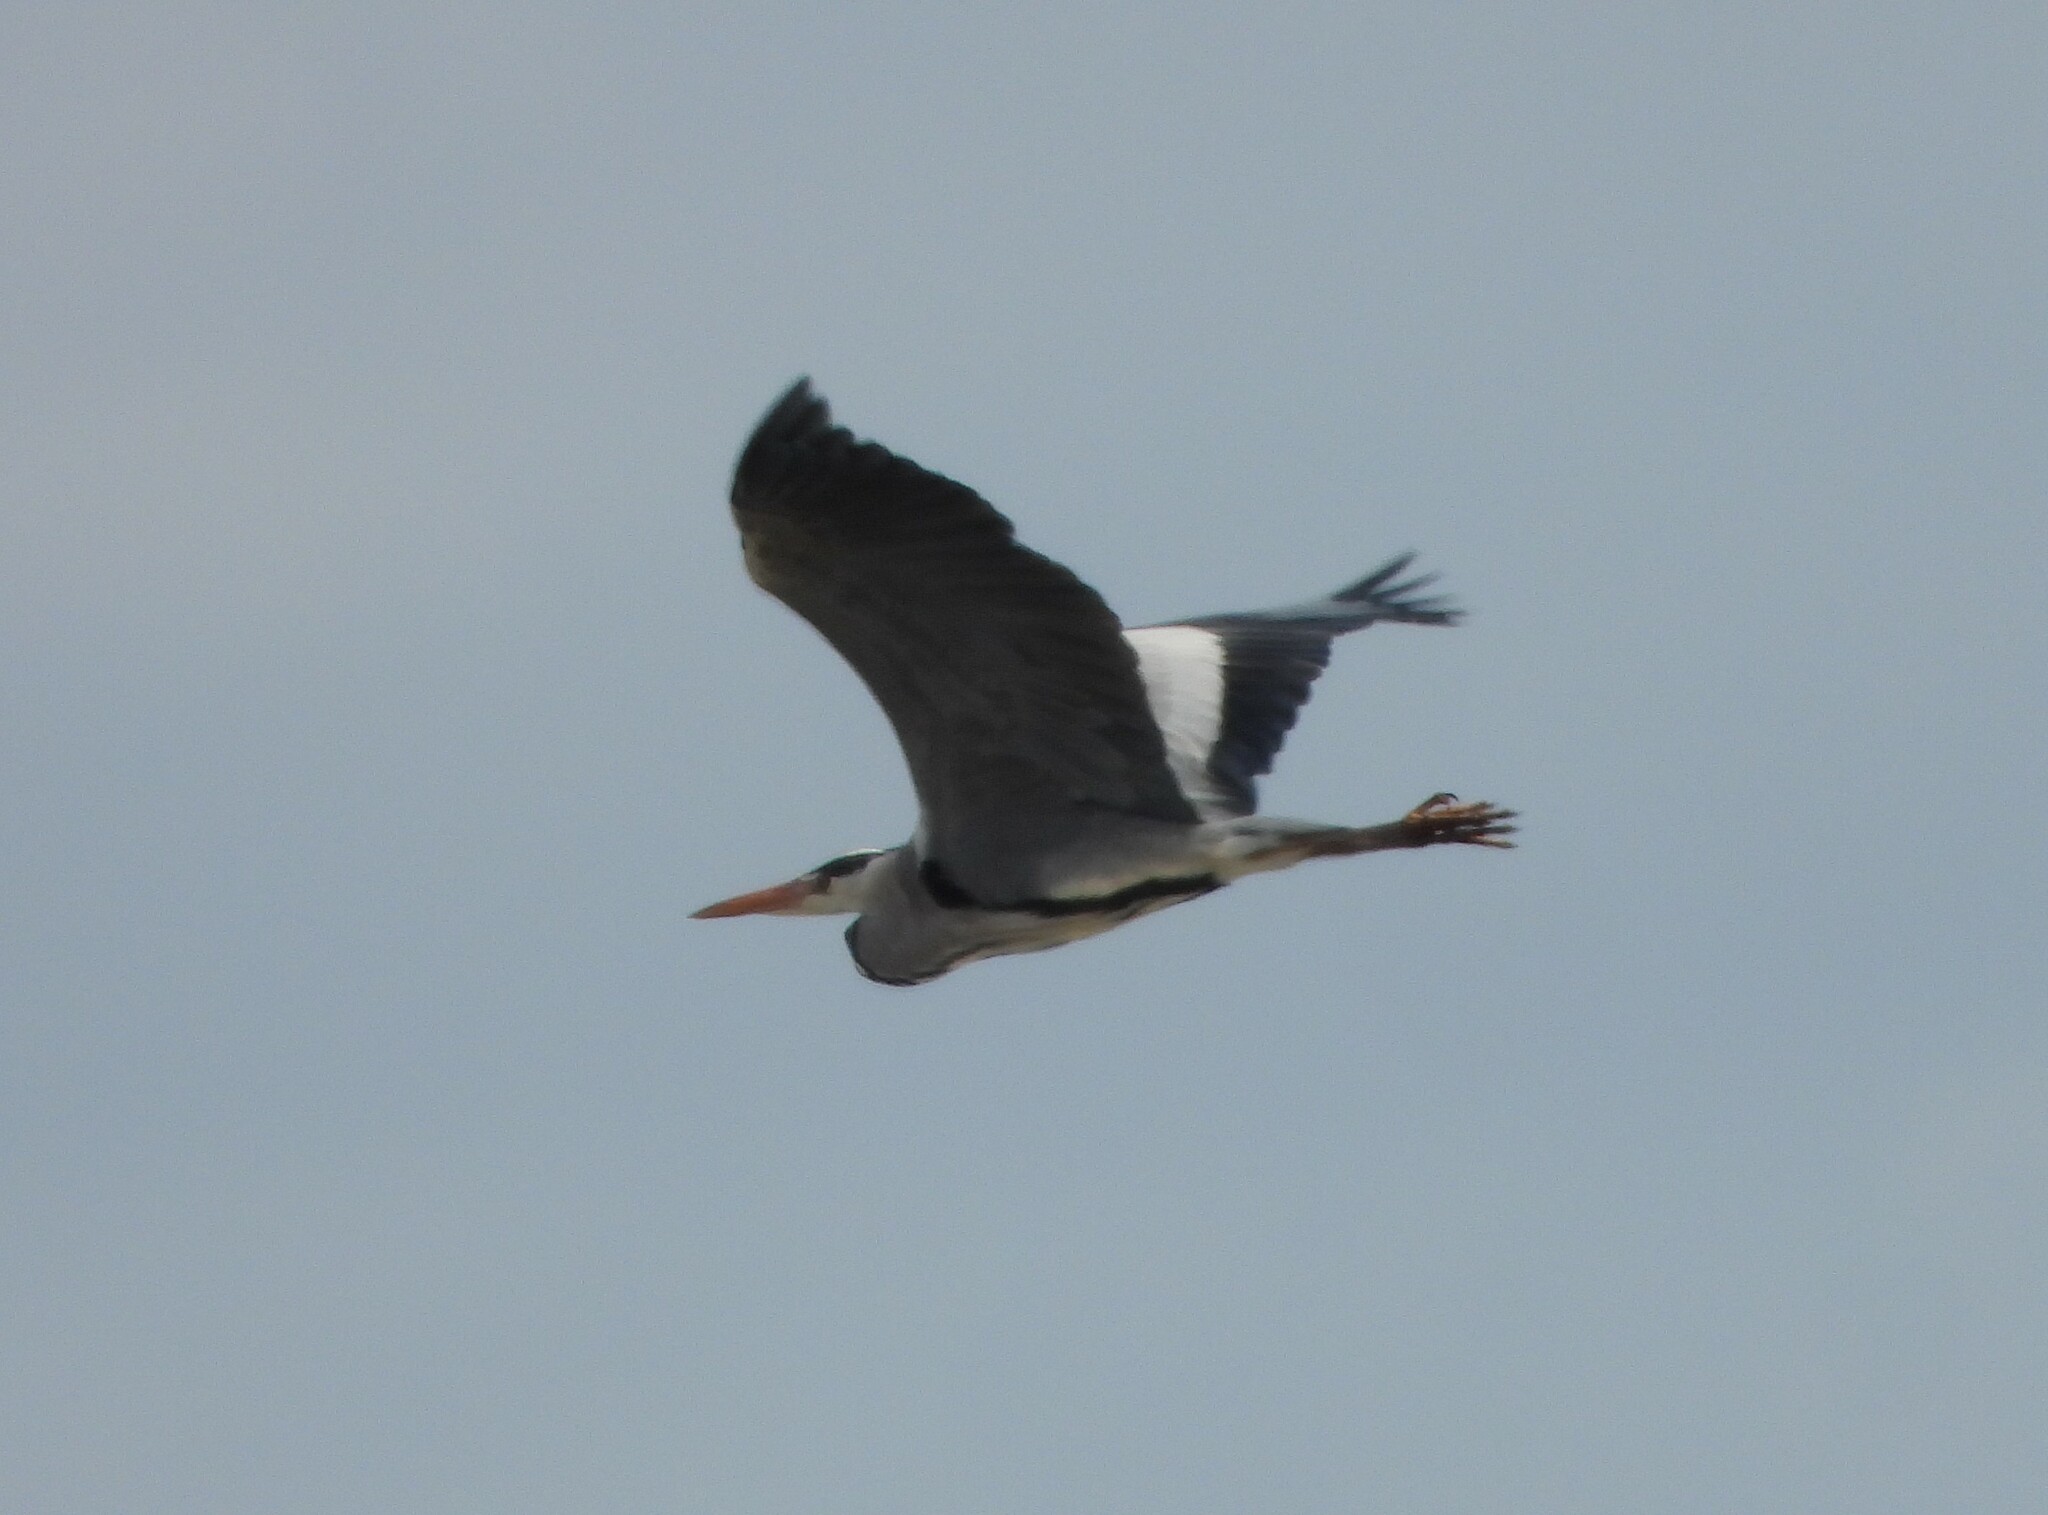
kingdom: Animalia
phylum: Chordata
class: Aves
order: Pelecaniformes
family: Ardeidae
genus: Ardea
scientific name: Ardea cinerea
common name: Grey heron
